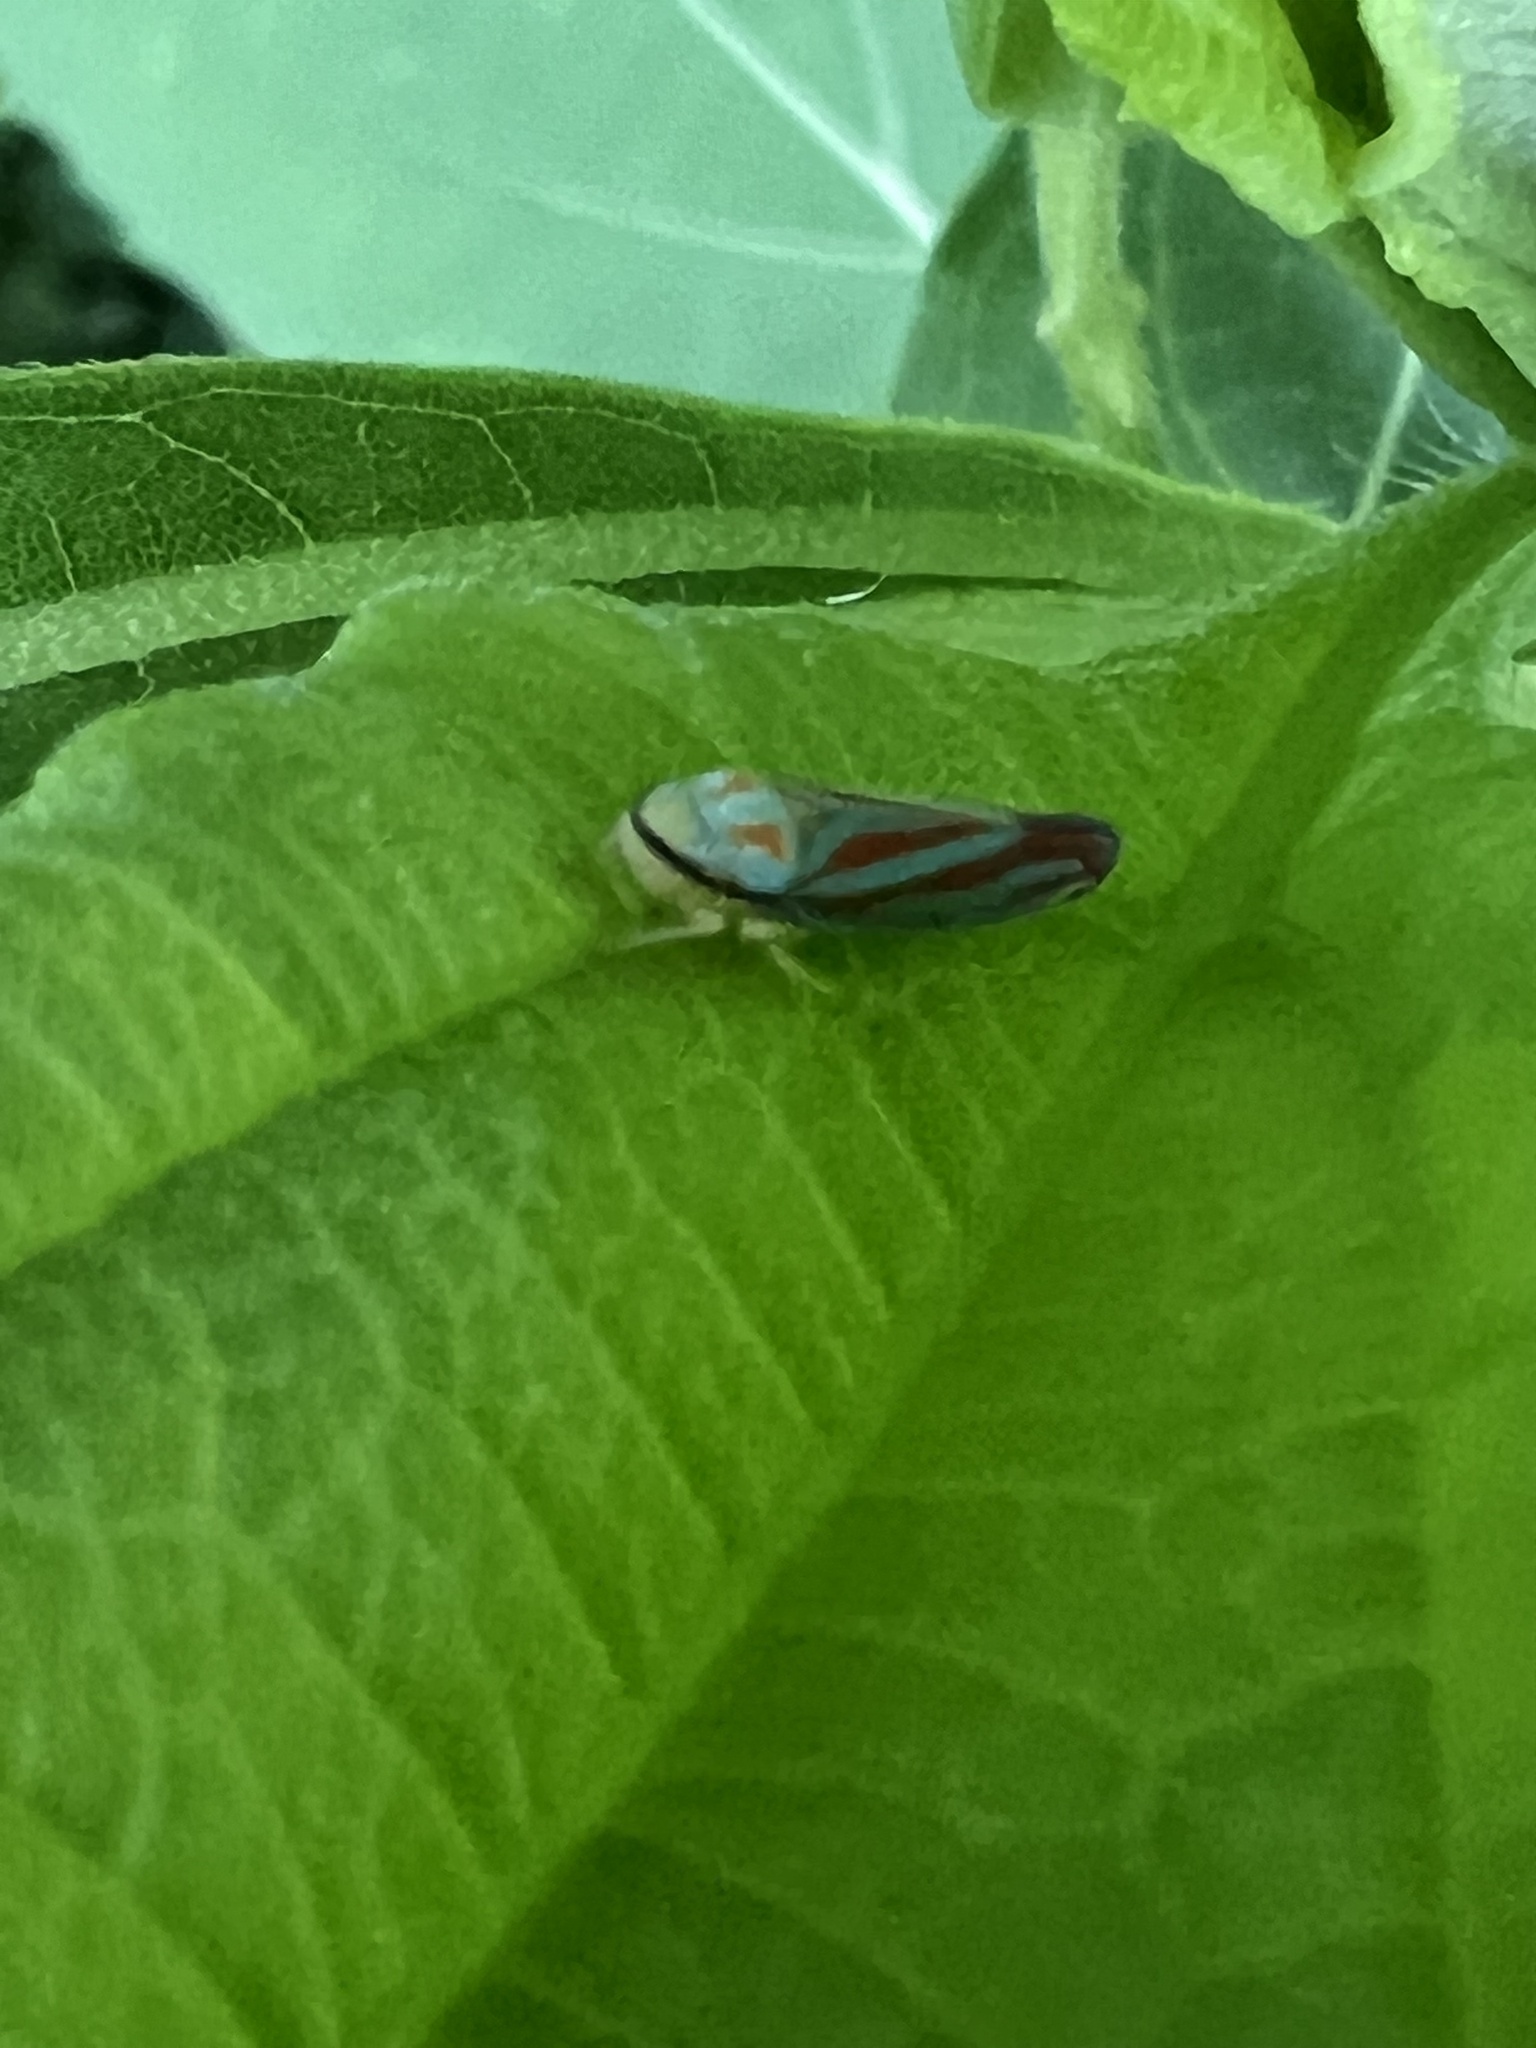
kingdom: Animalia
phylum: Arthropoda
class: Insecta
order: Hemiptera
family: Cicadellidae
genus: Graphocephala
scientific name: Graphocephala coccinea
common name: Candy-striped leafhopper
